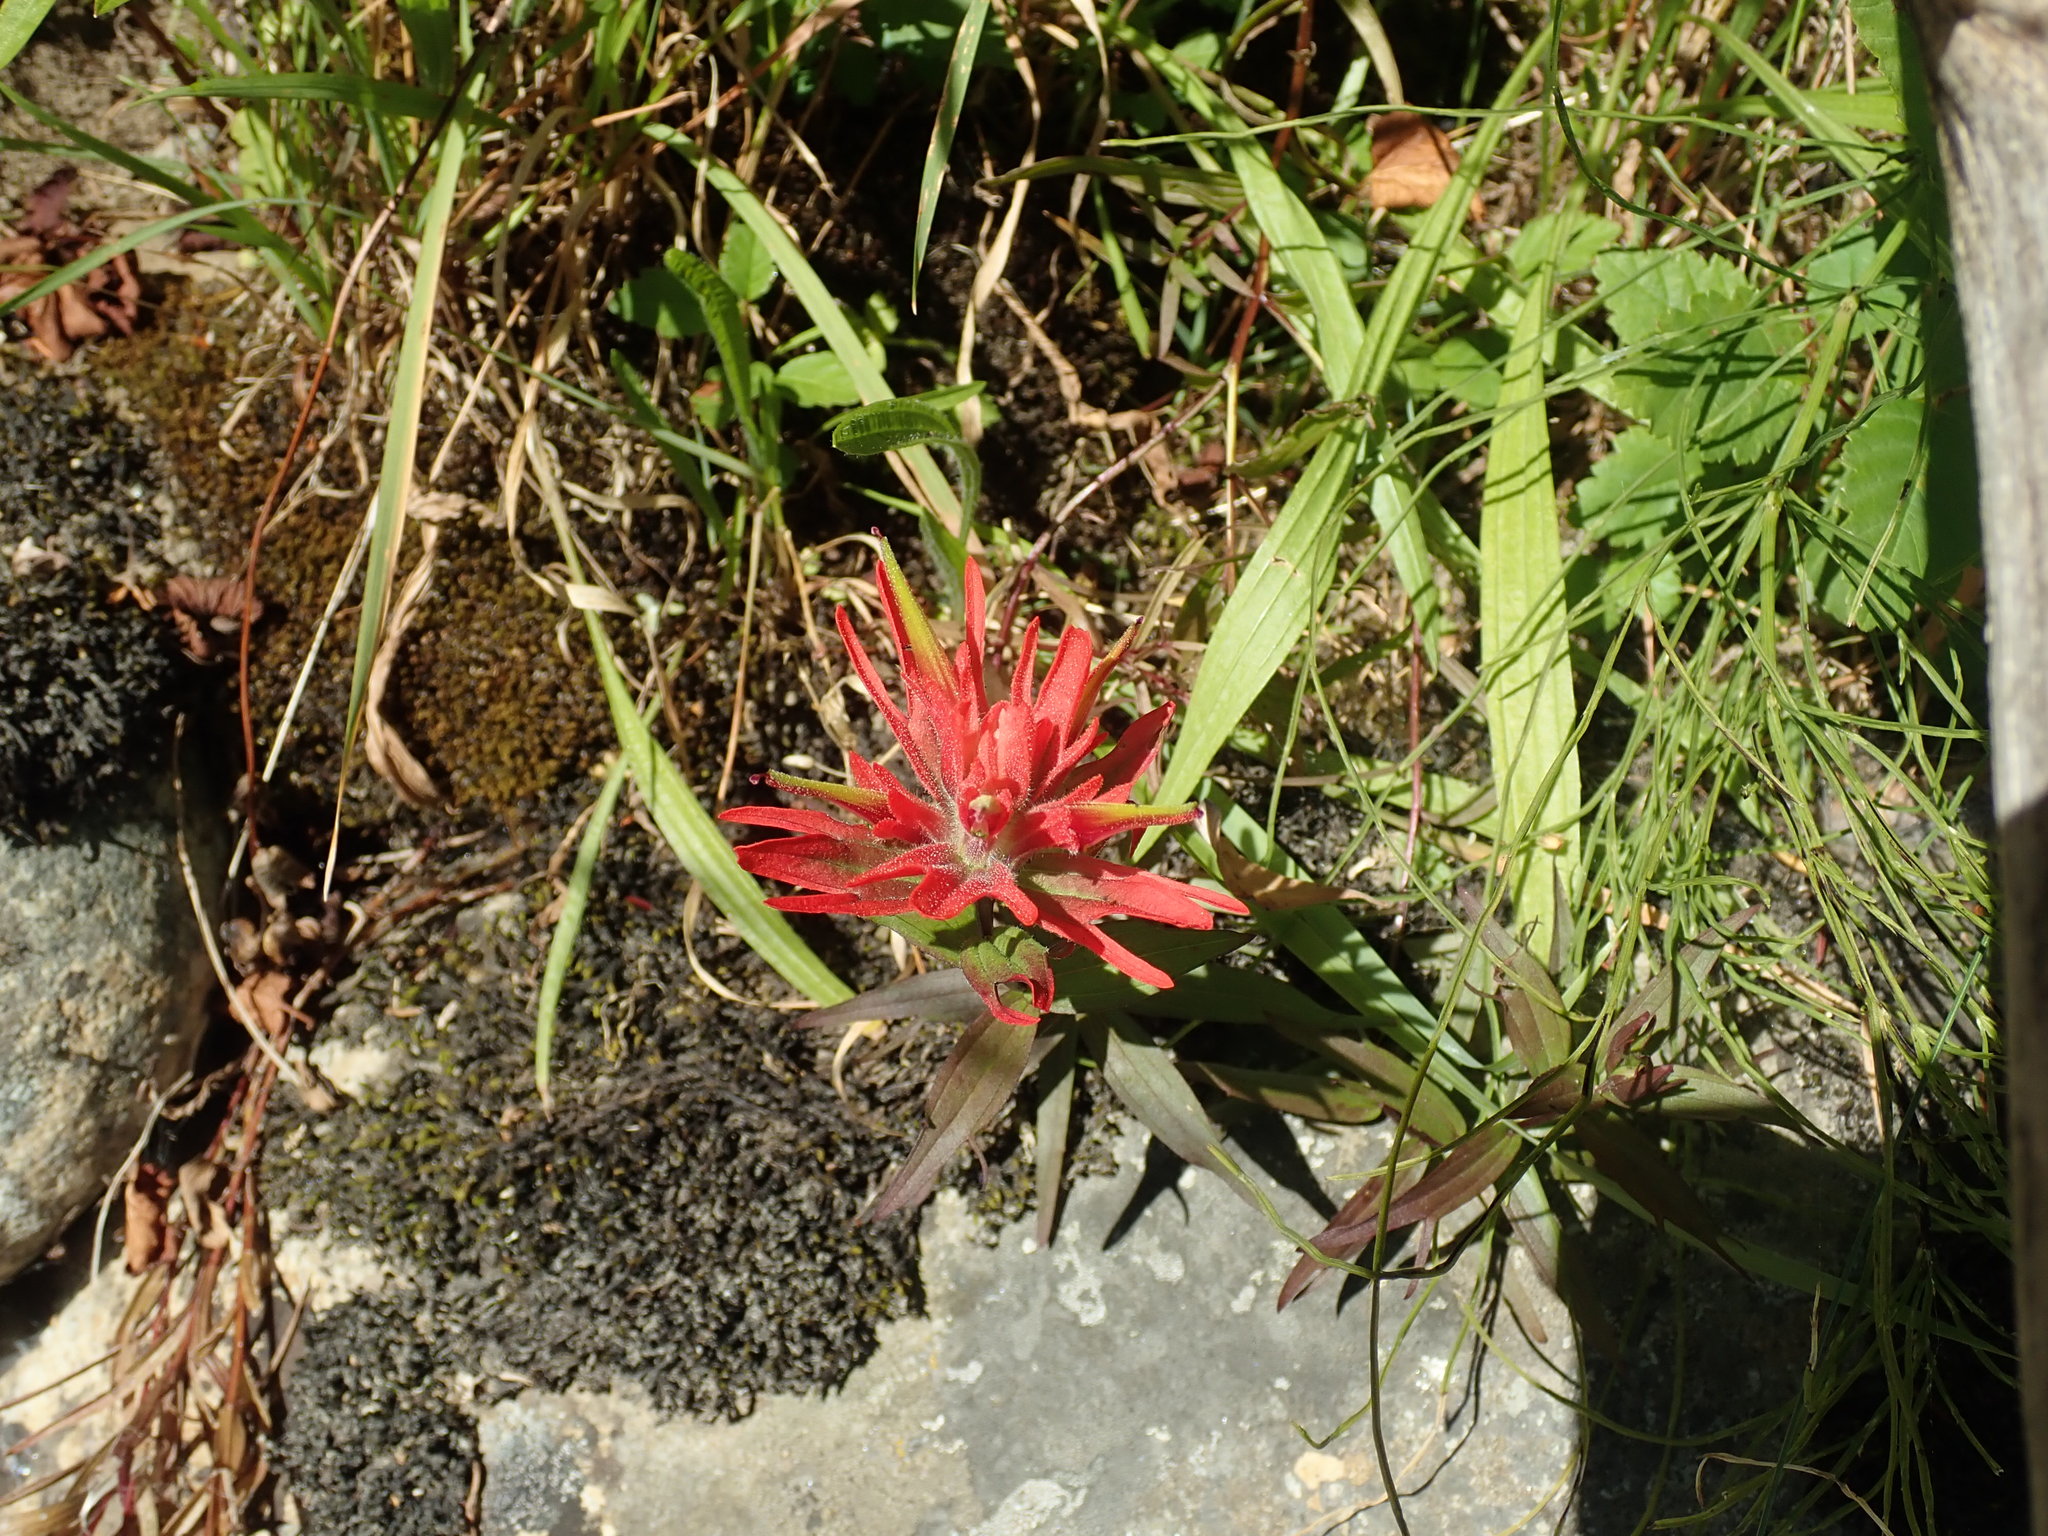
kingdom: Plantae
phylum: Tracheophyta
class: Magnoliopsida
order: Lamiales
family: Orobanchaceae
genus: Castilleja
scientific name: Castilleja miniata
